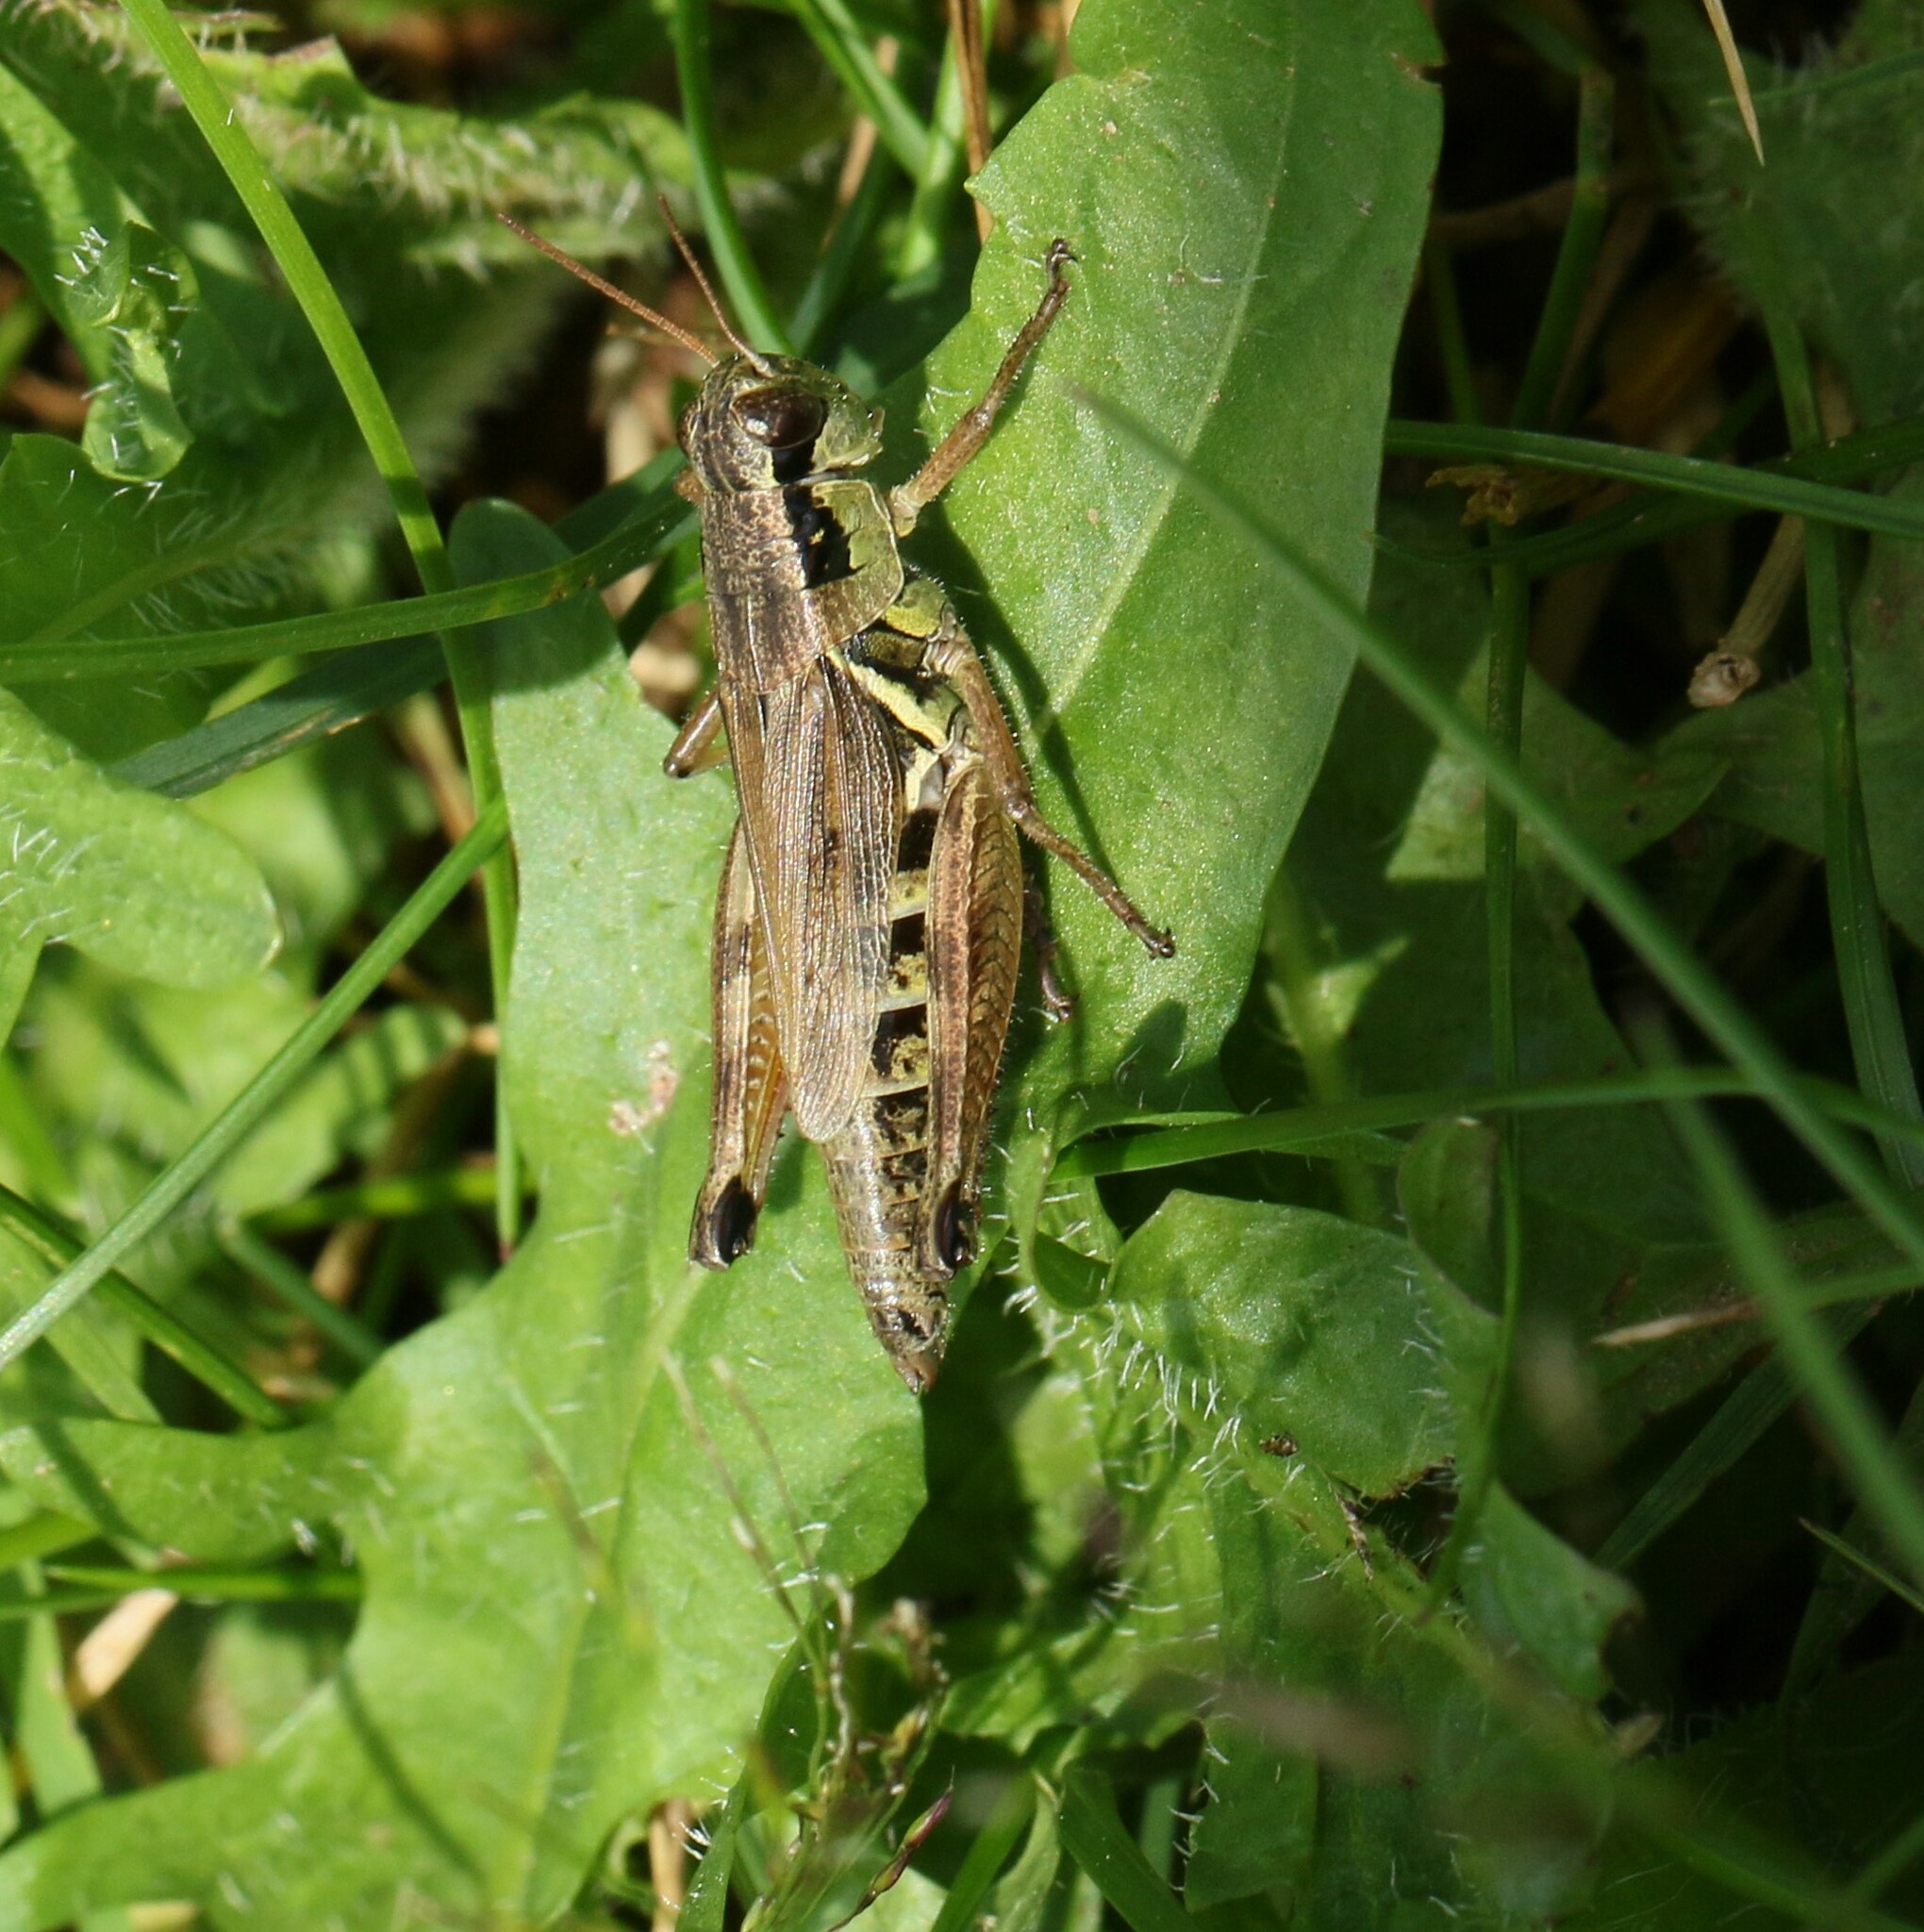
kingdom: Animalia
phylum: Arthropoda
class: Insecta
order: Orthoptera
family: Acrididae
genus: Melanoplus
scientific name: Melanoplus borealis
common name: Northern grasshopper
